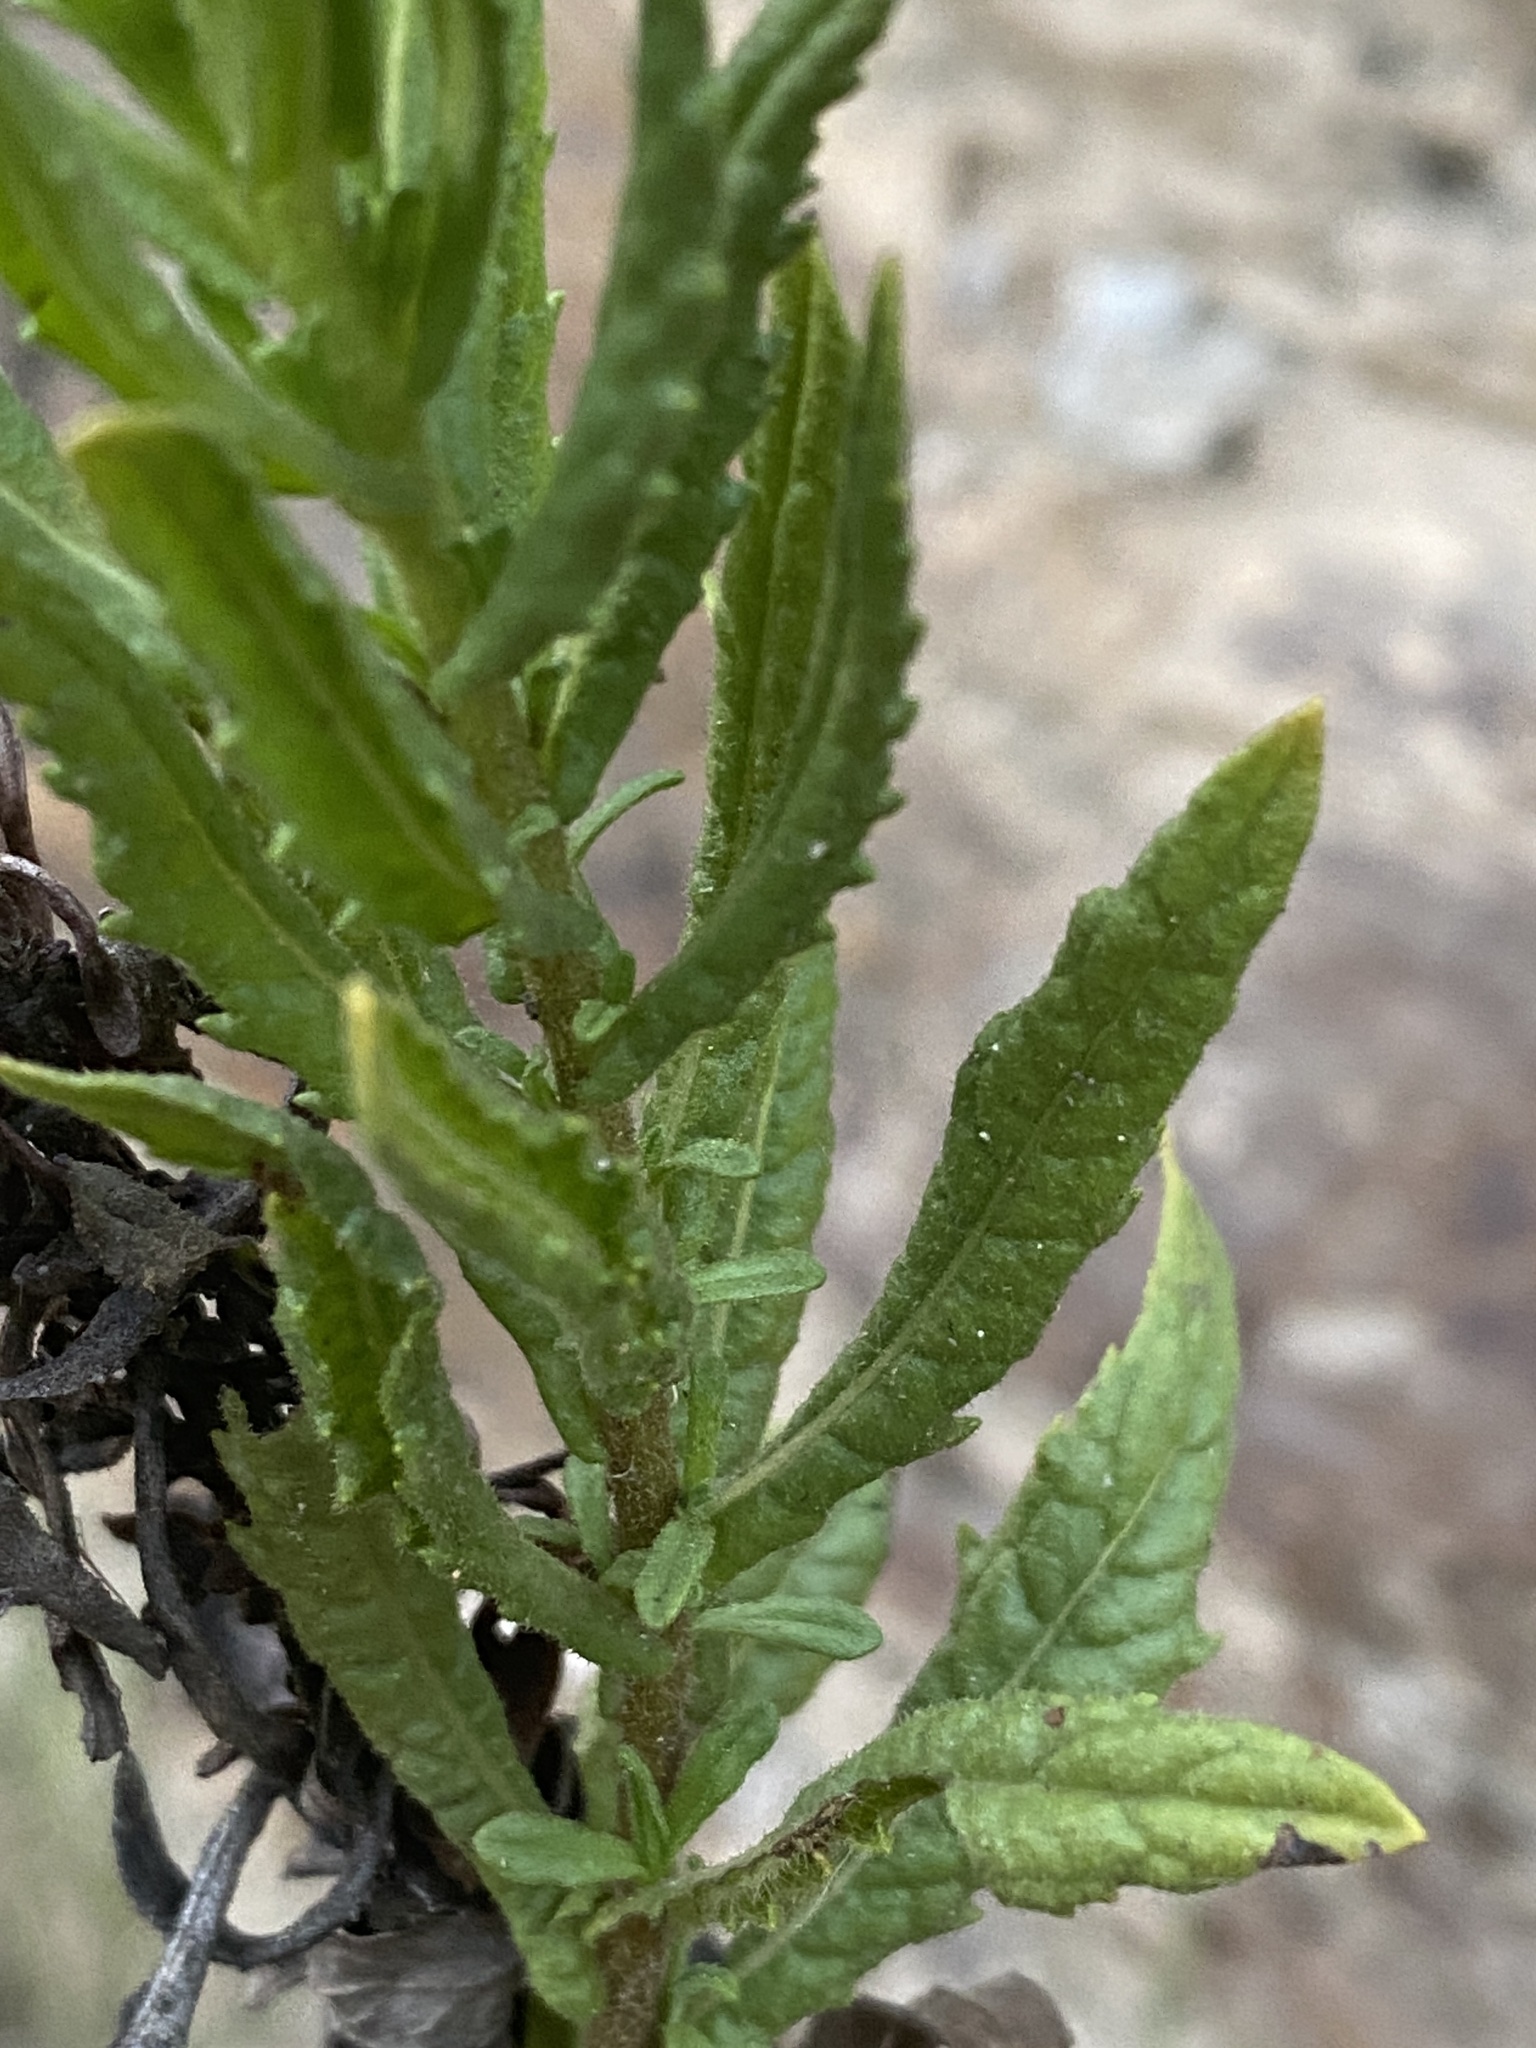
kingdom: Plantae
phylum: Tracheophyta
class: Magnoliopsida
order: Asterales
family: Asteraceae
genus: Dittrichia
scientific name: Dittrichia viscosa
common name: Woody fleabane
